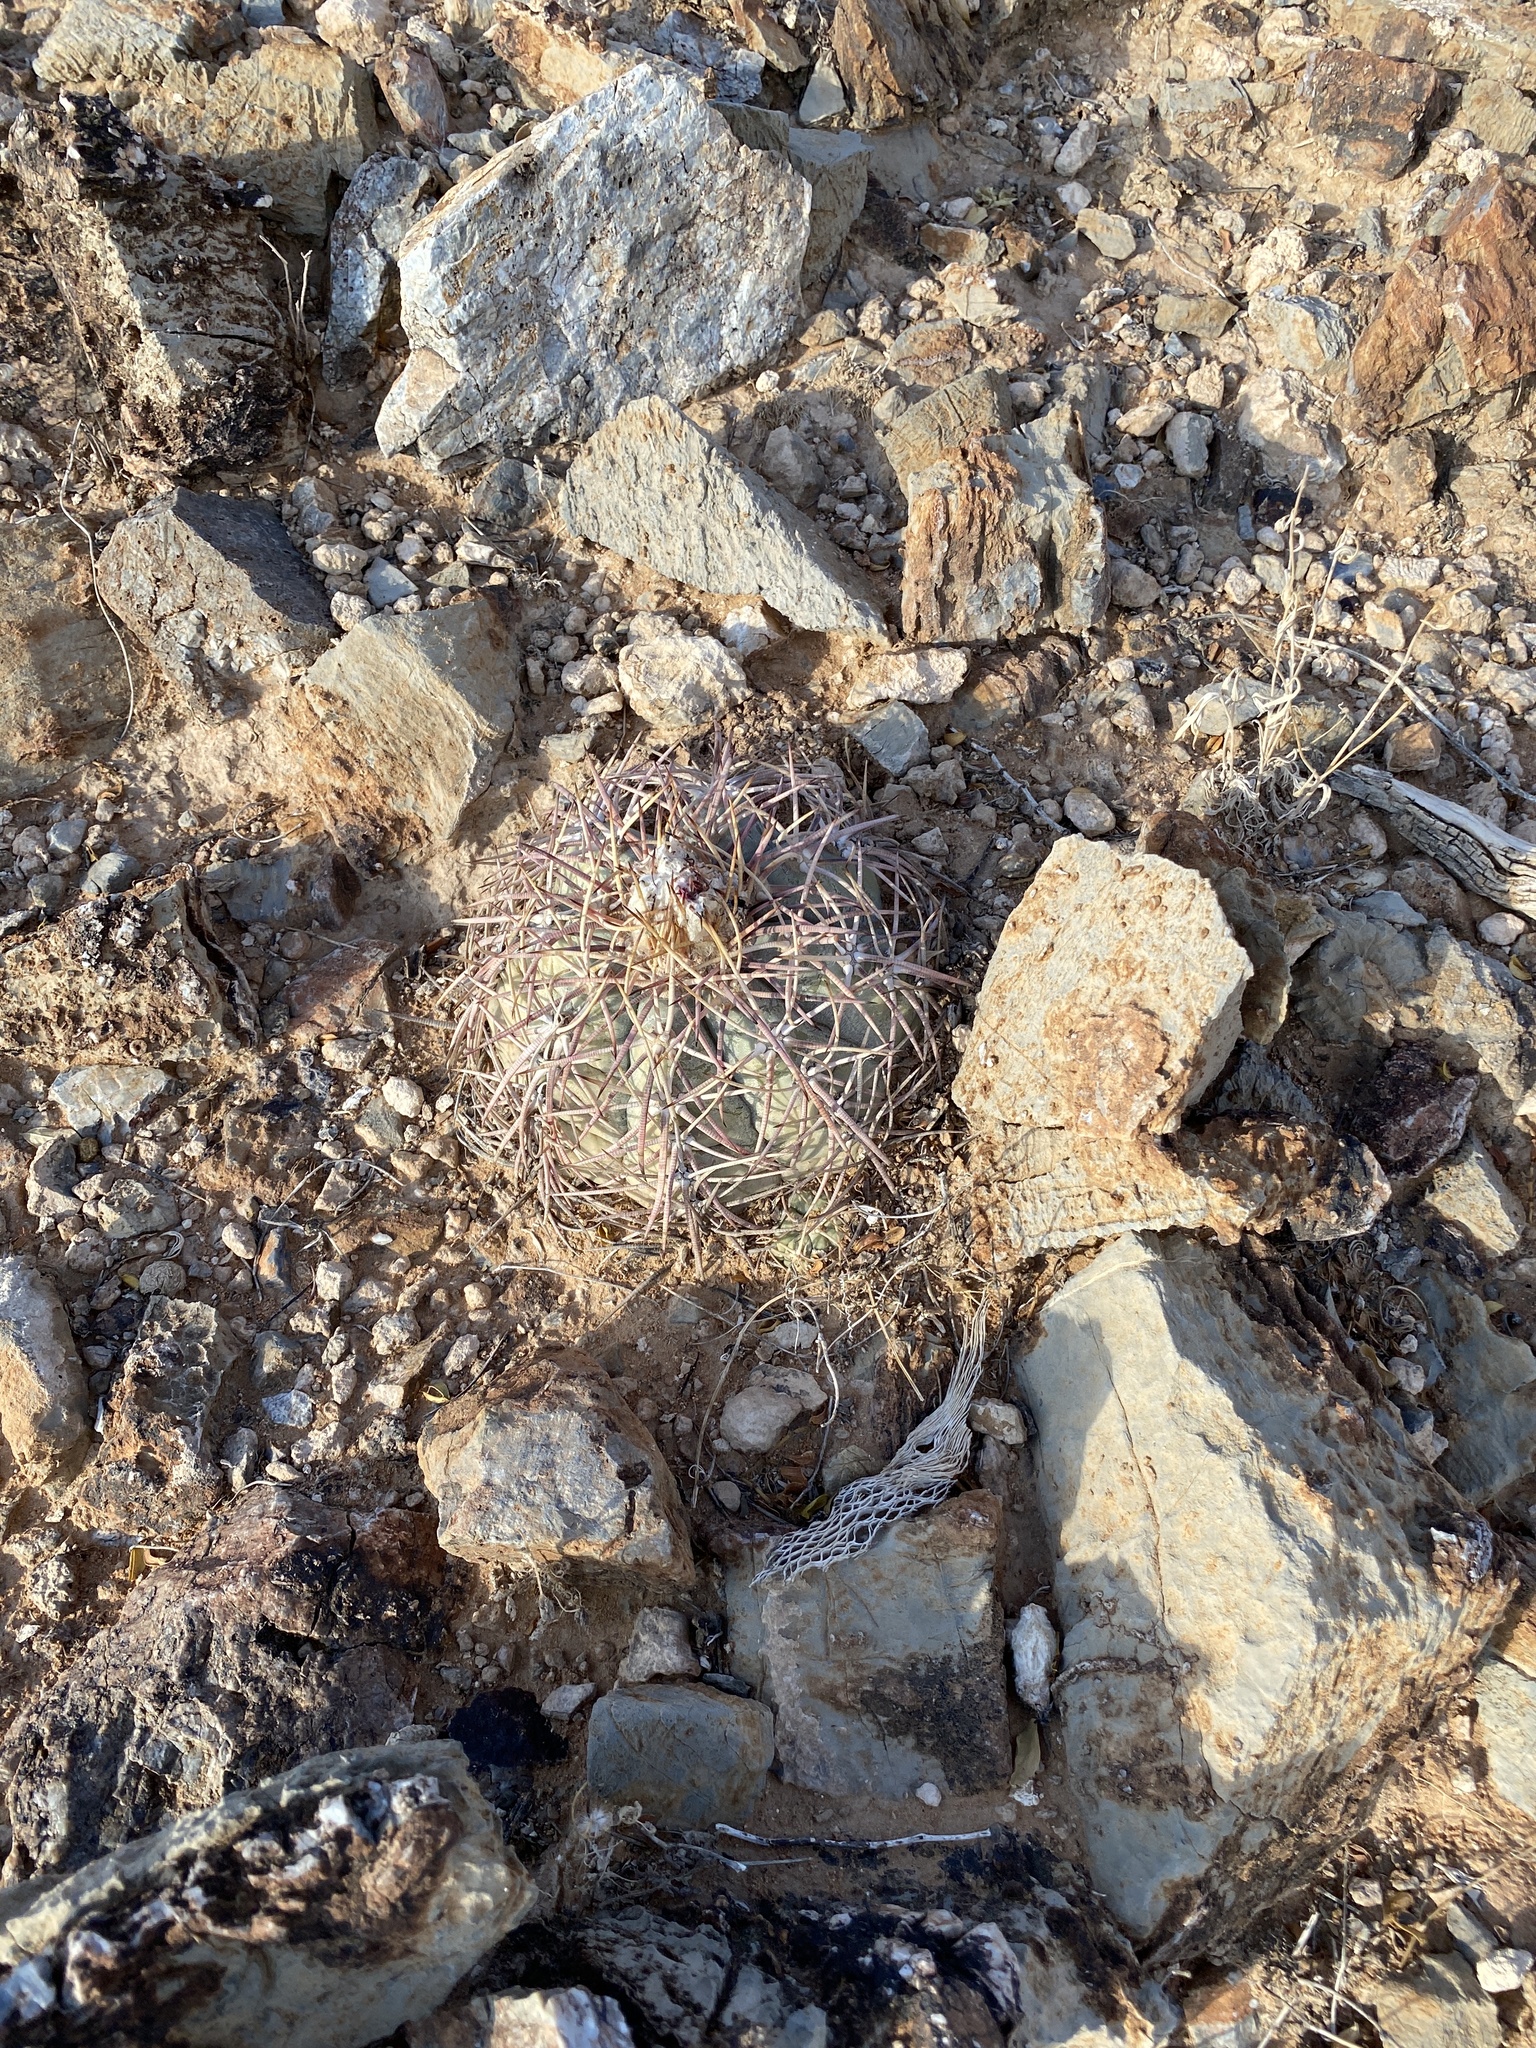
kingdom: Plantae
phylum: Tracheophyta
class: Magnoliopsida
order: Caryophyllales
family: Cactaceae
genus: Echinocactus
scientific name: Echinocactus horizonthalonius
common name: Devilshead
